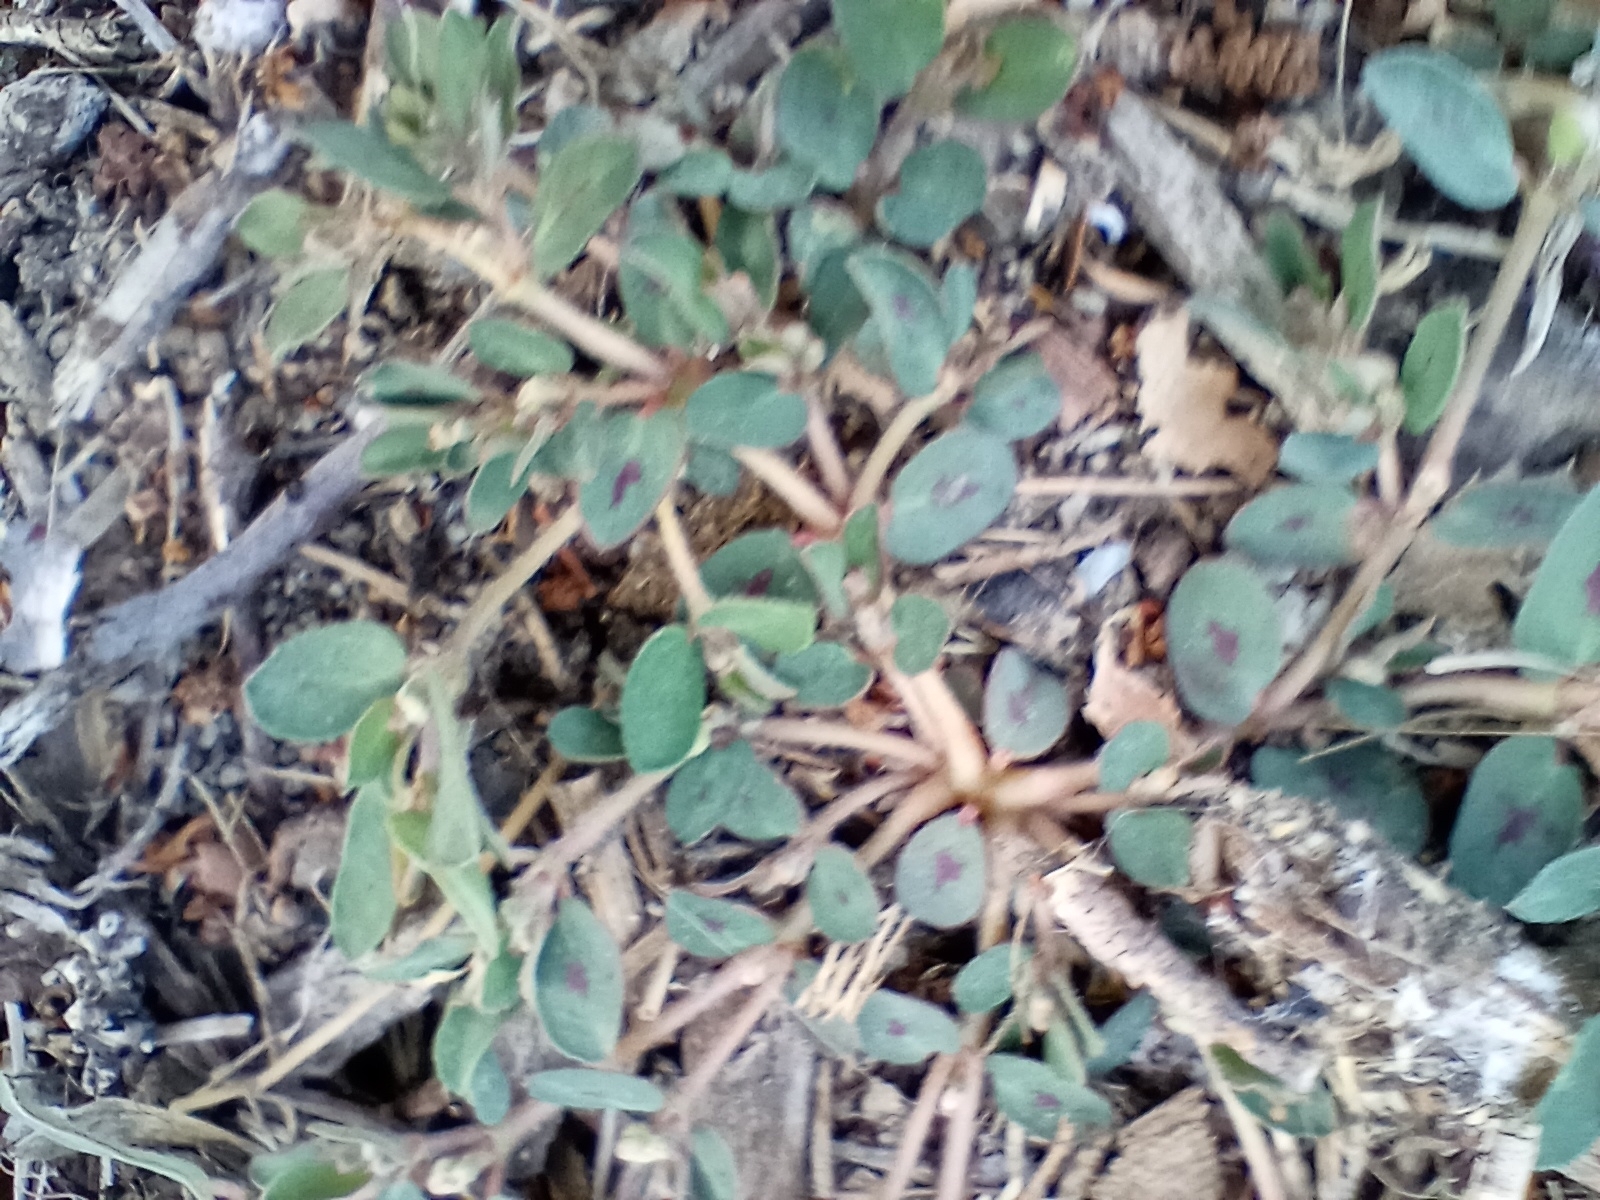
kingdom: Plantae
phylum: Tracheophyta
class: Magnoliopsida
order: Malpighiales
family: Euphorbiaceae
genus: Euphorbia
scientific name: Euphorbia maculata
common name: Spotted spurge
